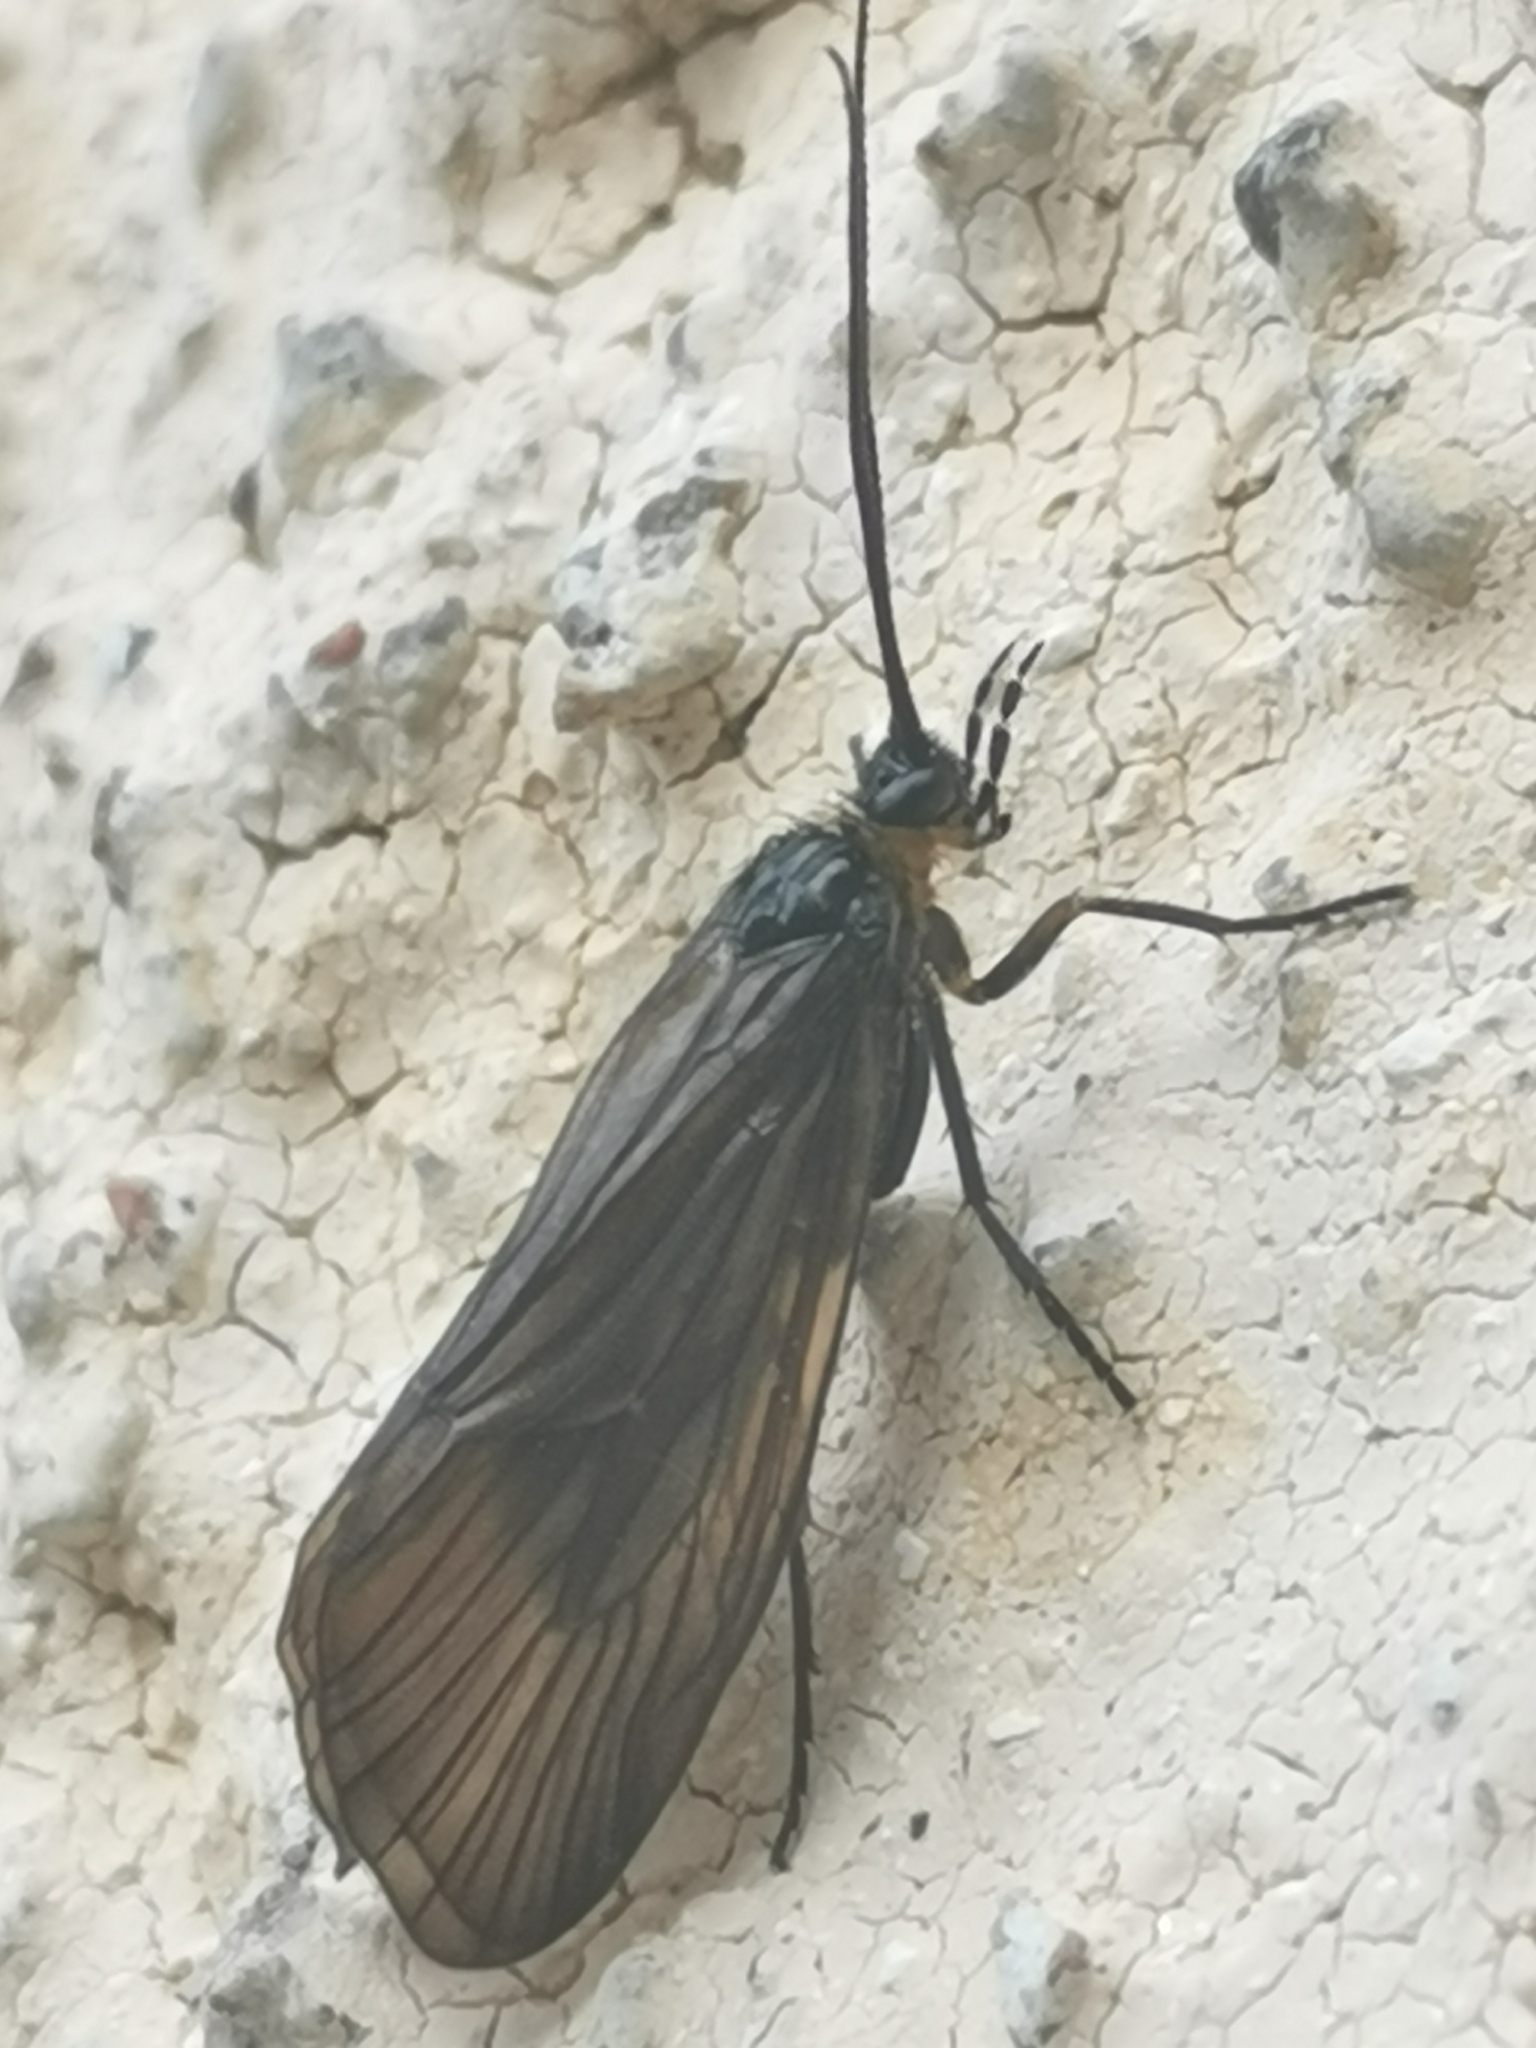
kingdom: Animalia
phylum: Arthropoda
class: Insecta
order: Trichoptera
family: Phryganeidae
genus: Oligotricha
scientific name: Oligotricha striata
